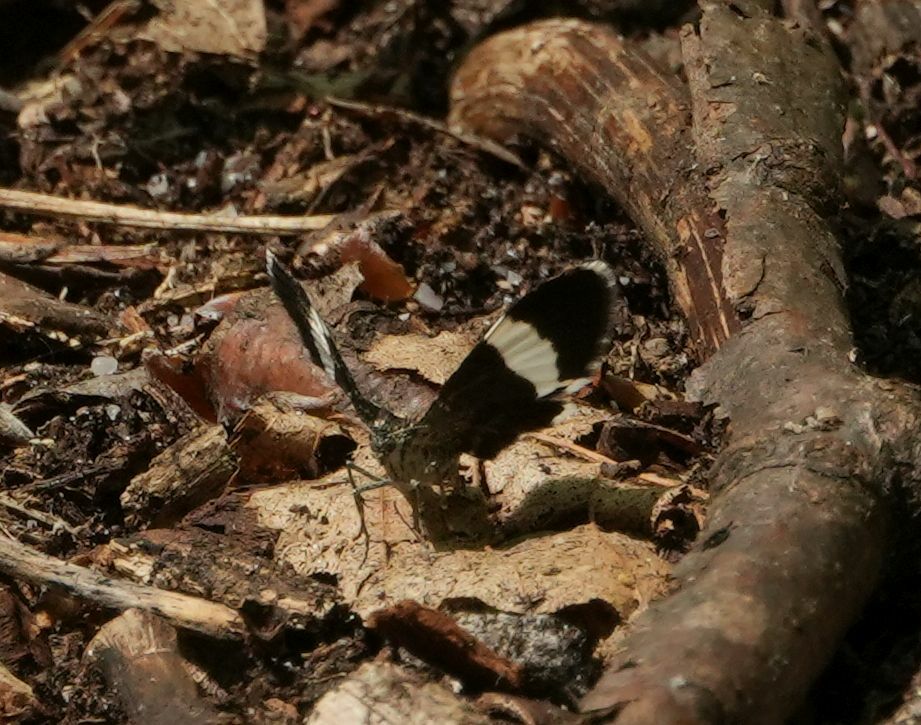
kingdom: Animalia
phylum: Arthropoda
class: Insecta
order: Lepidoptera
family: Geometridae
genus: Trichodezia
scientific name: Trichodezia albovittata
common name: White striped black
